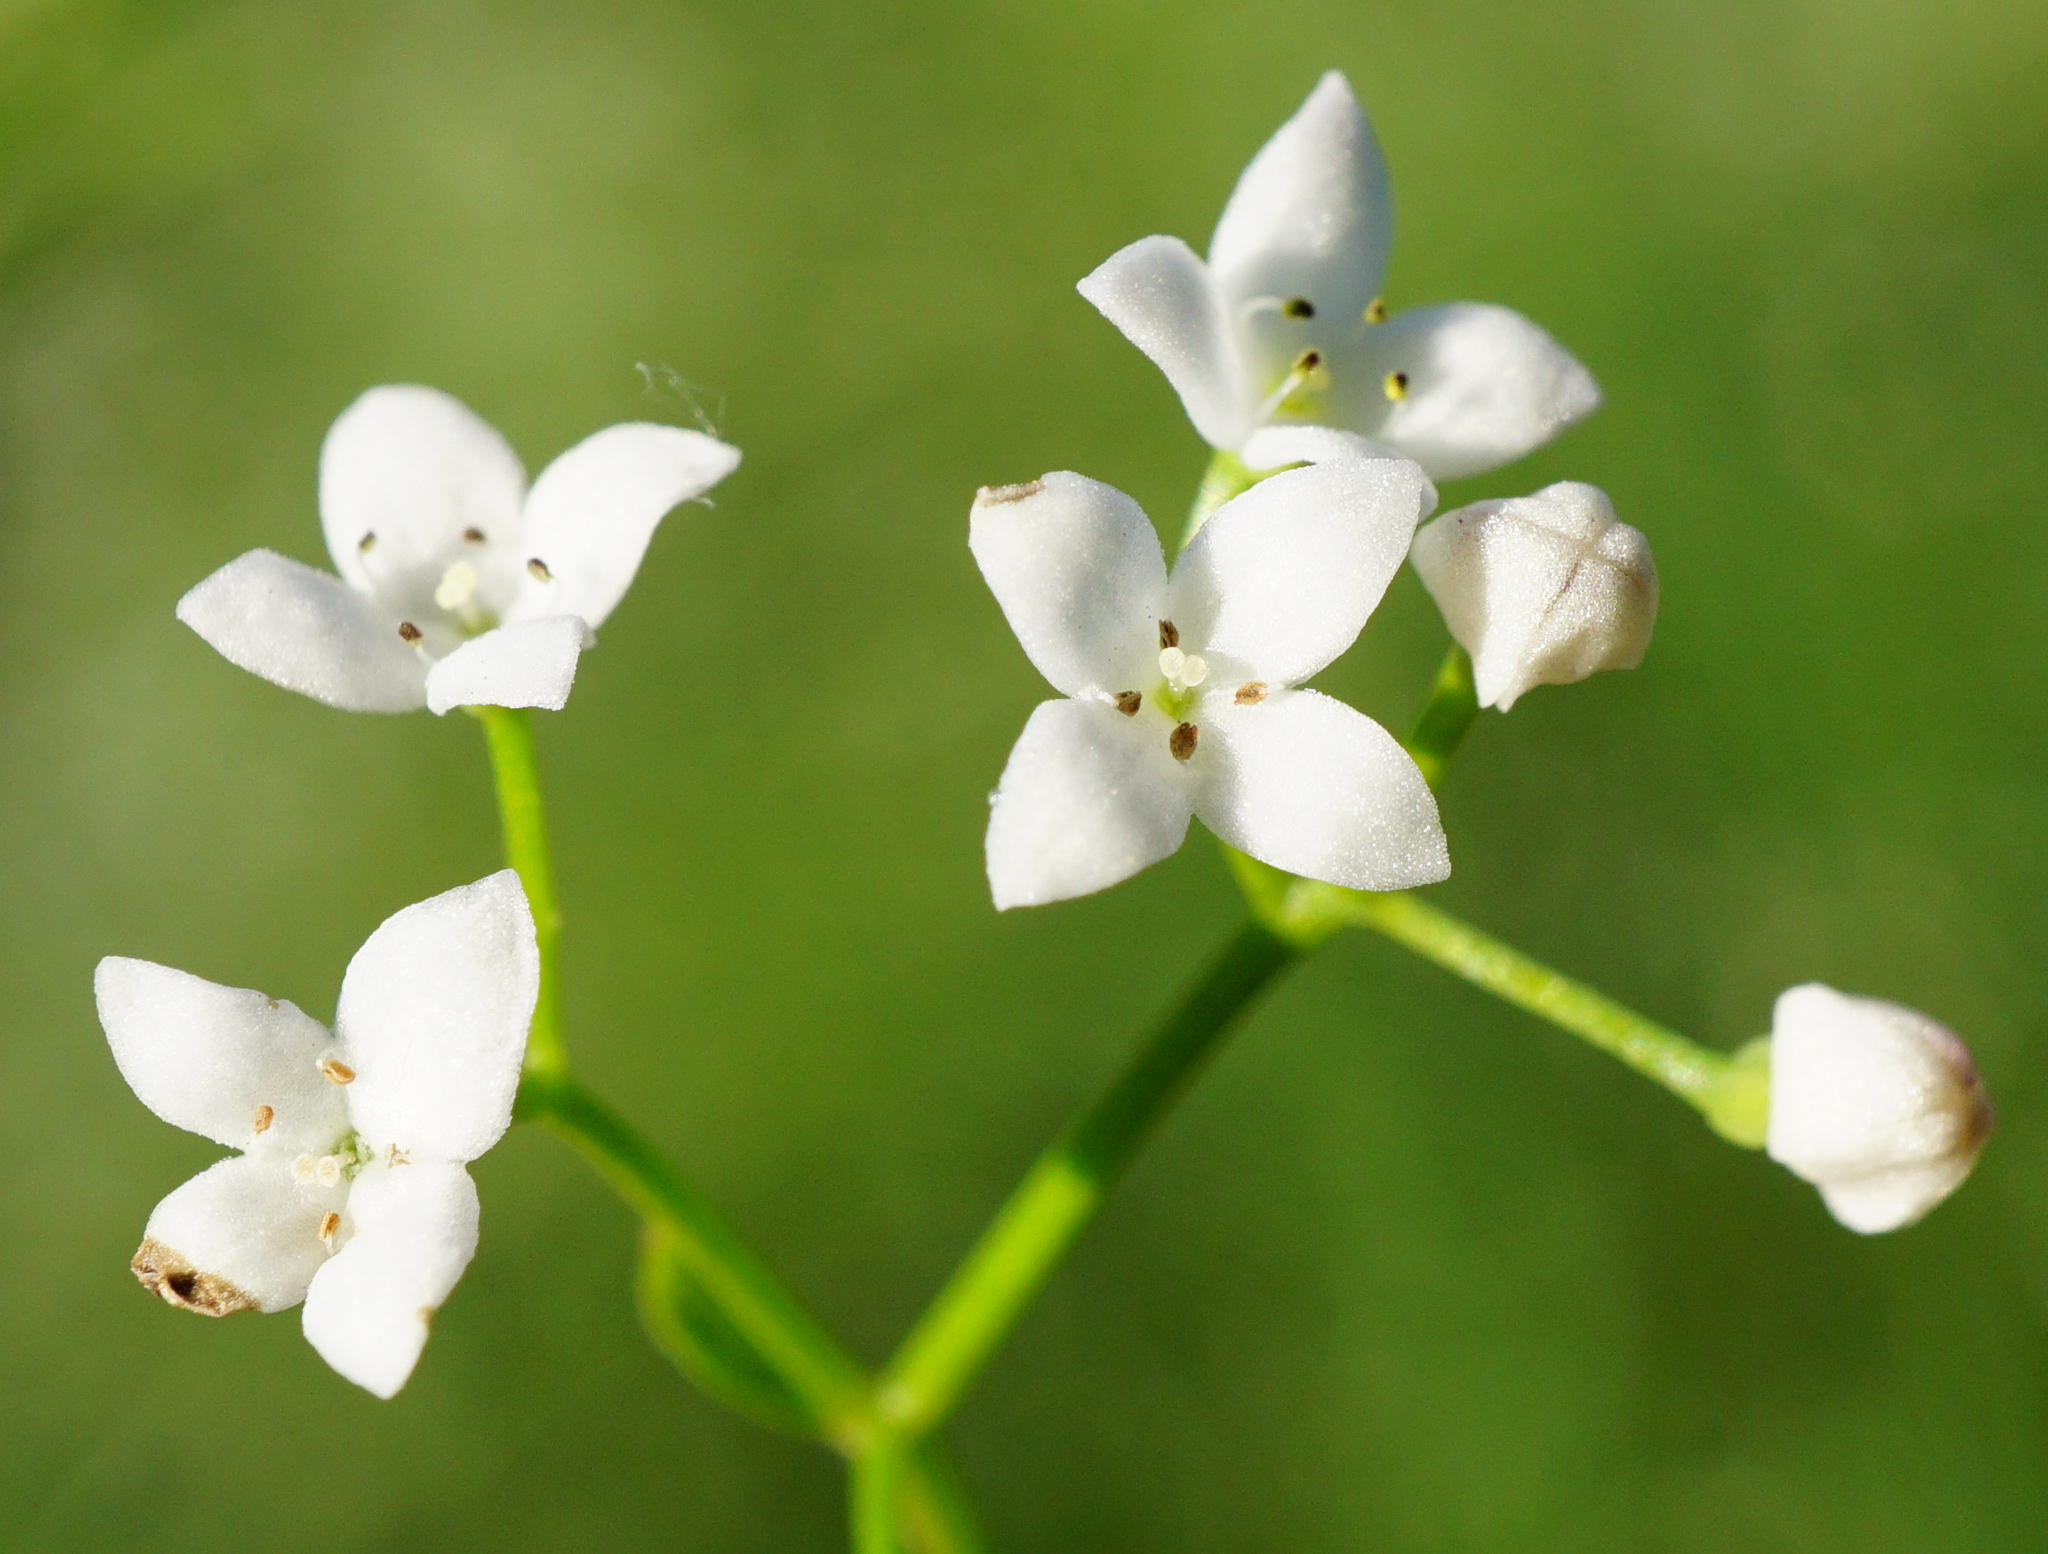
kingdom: Plantae
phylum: Tracheophyta
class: Magnoliopsida
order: Gentianales
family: Rubiaceae
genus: Galium
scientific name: Galium elongatum
